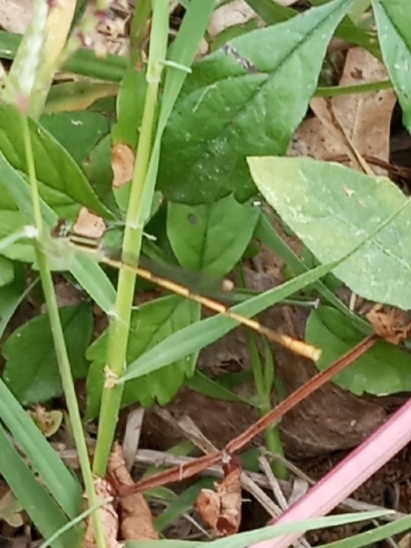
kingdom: Animalia
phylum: Arthropoda
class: Insecta
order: Odonata
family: Coenagrionidae
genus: Ischnura
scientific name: Ischnura hastata
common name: Citrine forktail
